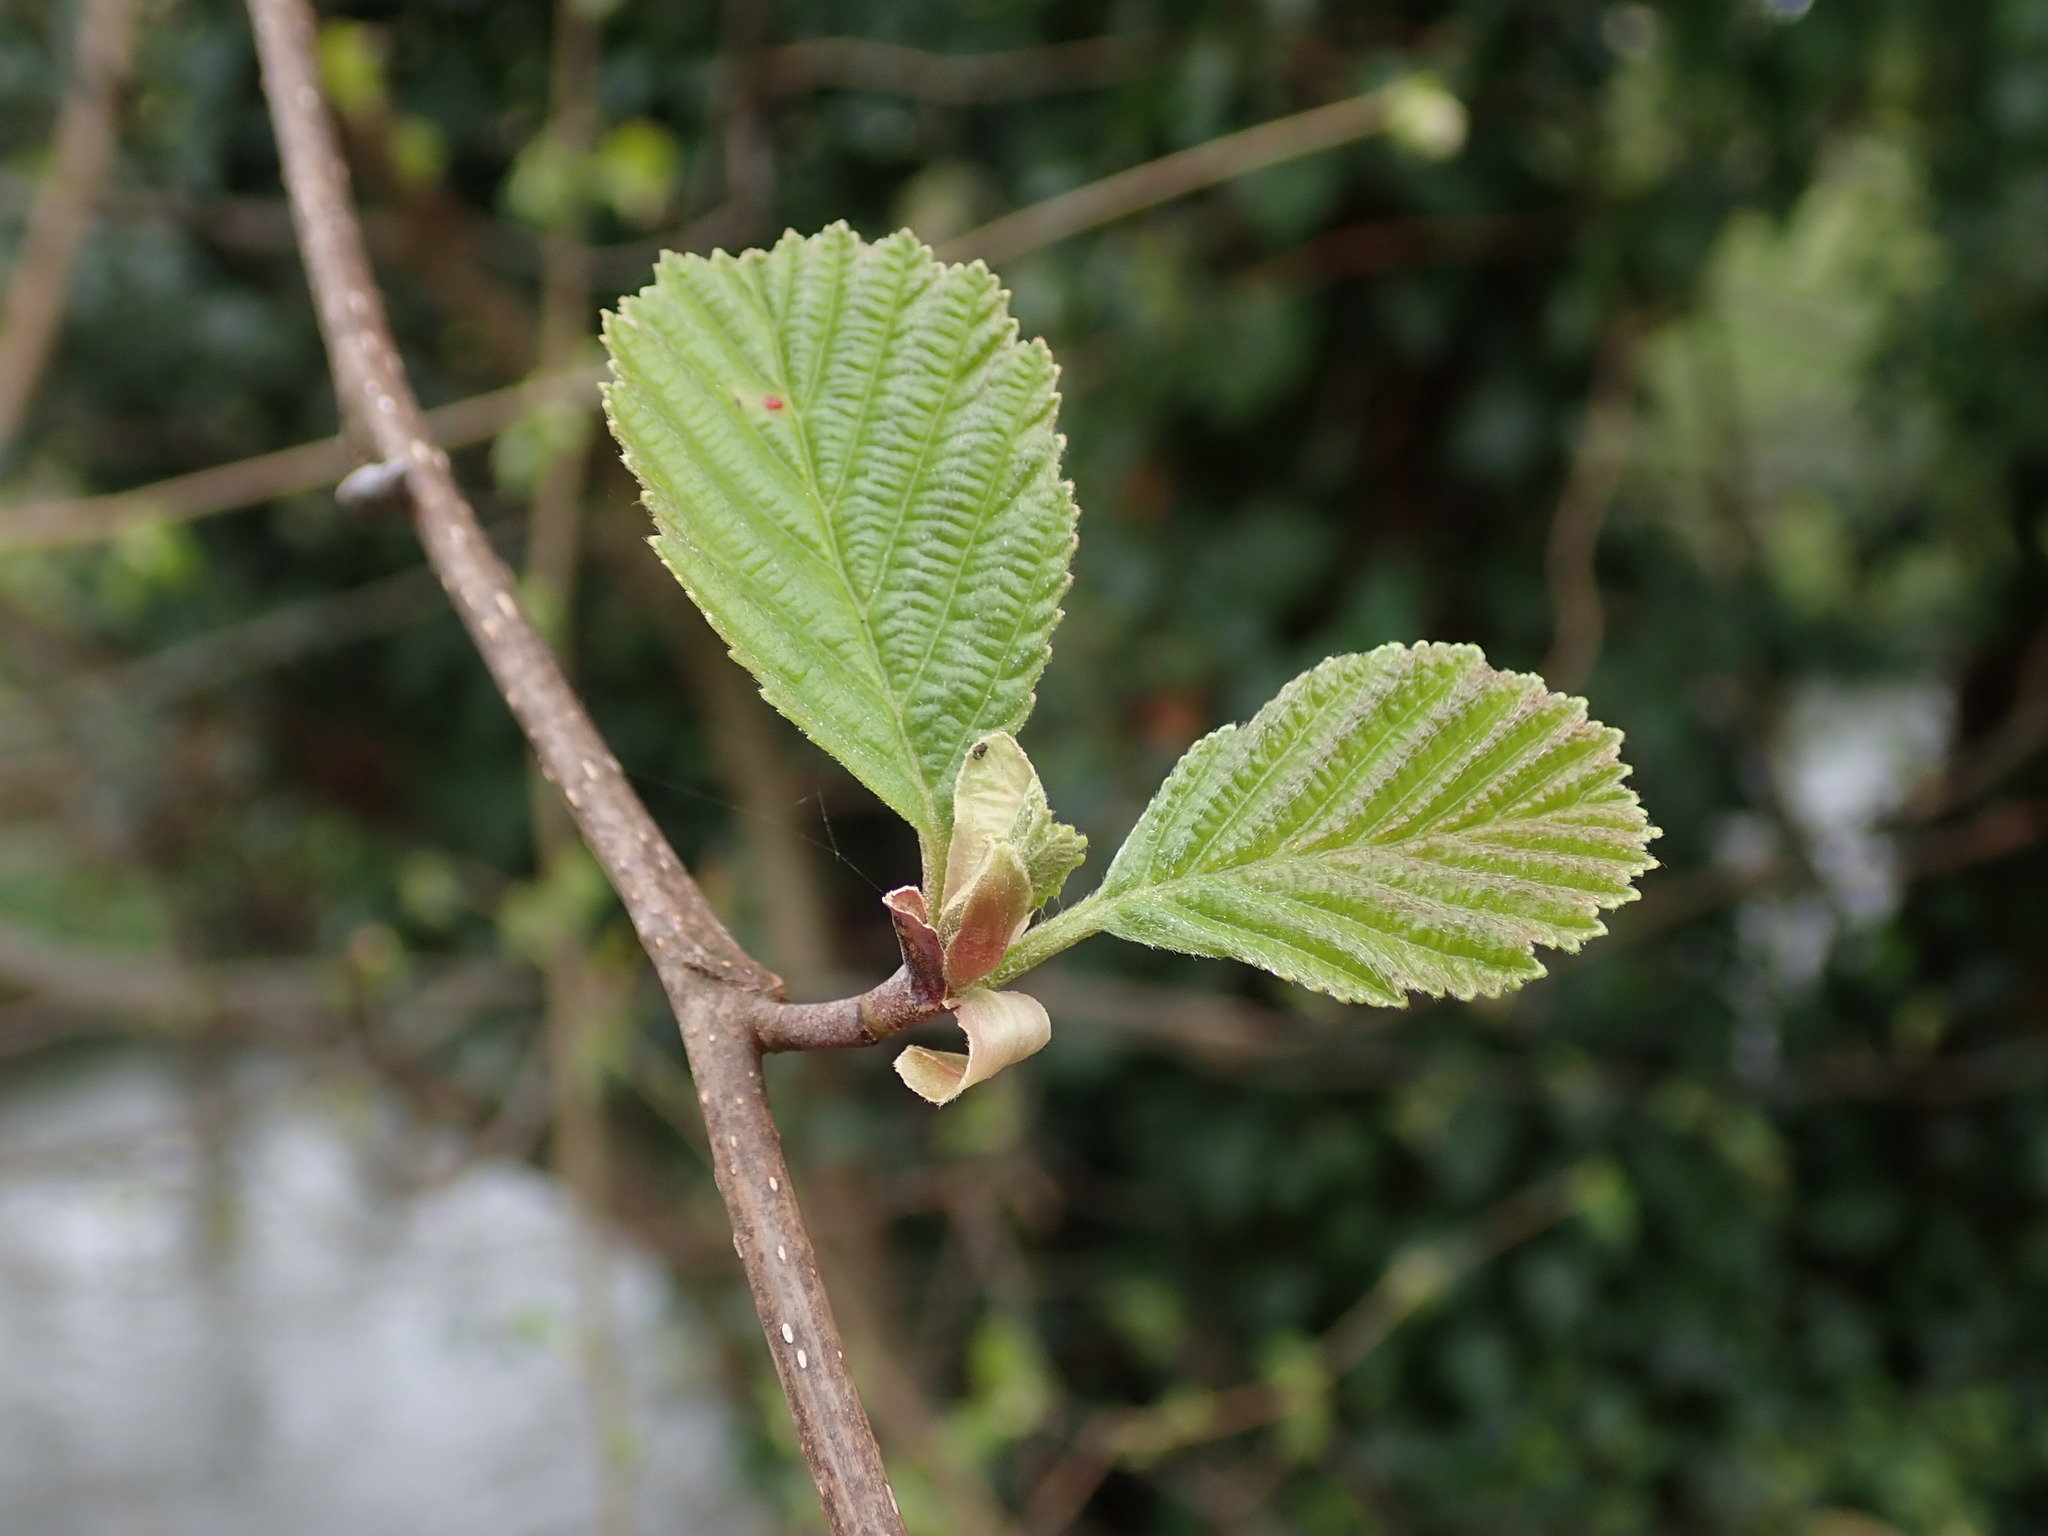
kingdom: Plantae
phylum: Tracheophyta
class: Magnoliopsida
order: Fagales
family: Betulaceae
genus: Alnus
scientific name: Alnus glutinosa
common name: Black alder
